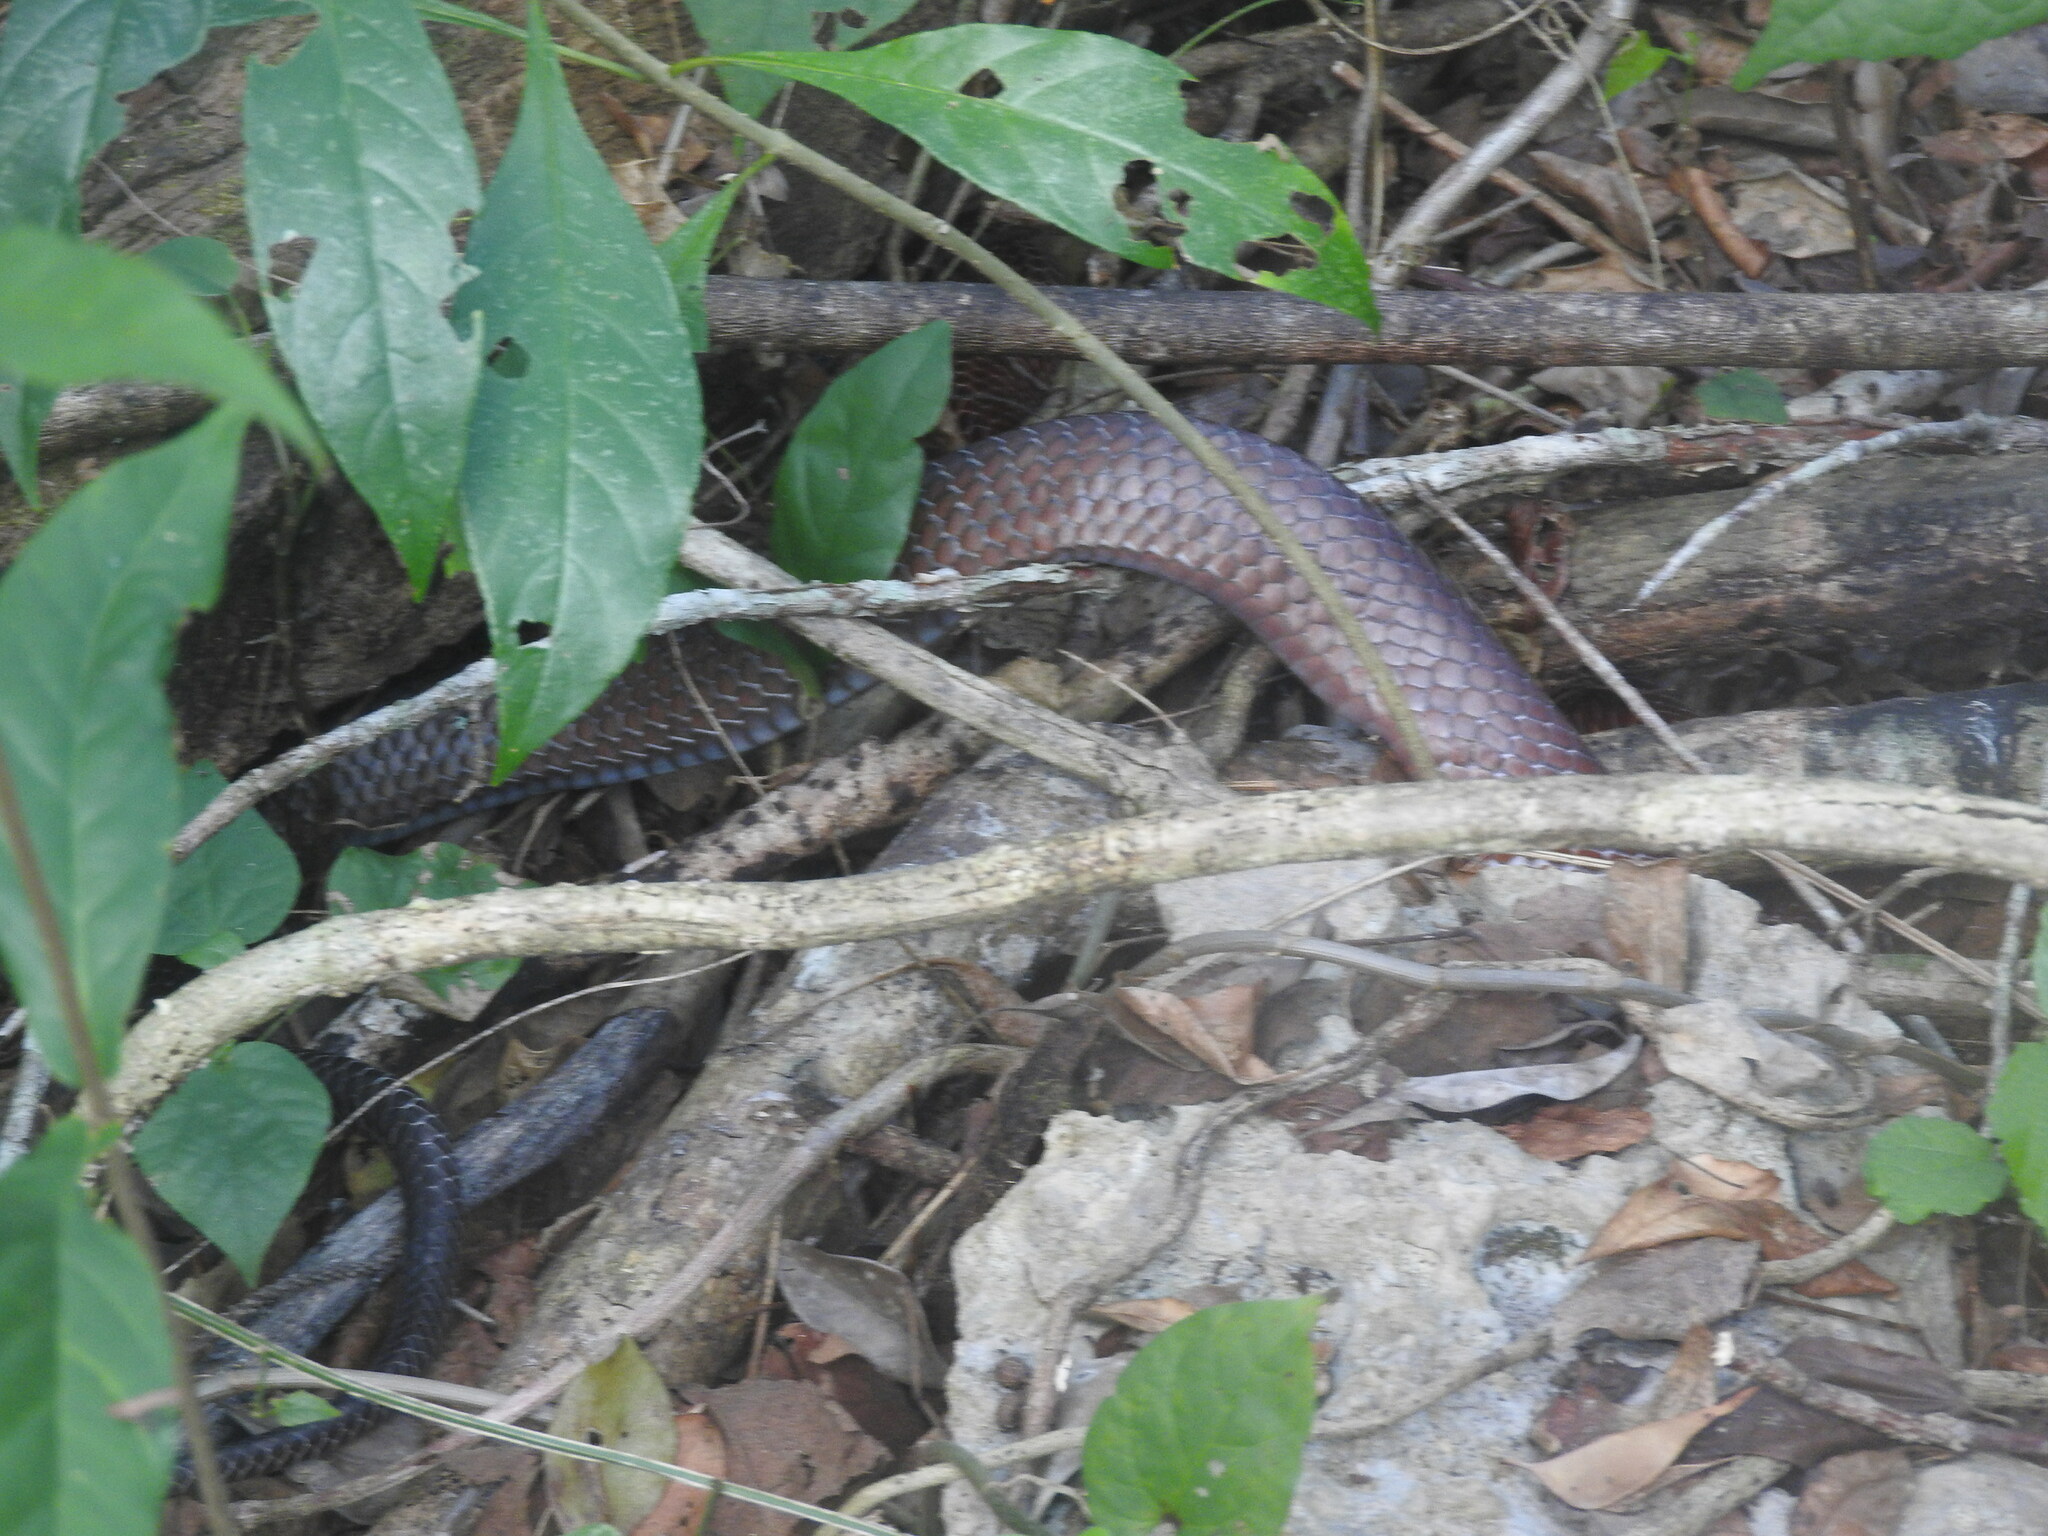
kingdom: Animalia
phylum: Chordata
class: Squamata
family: Colubridae
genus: Drymarchon
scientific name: Drymarchon melanurus
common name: Central american indigo snake
